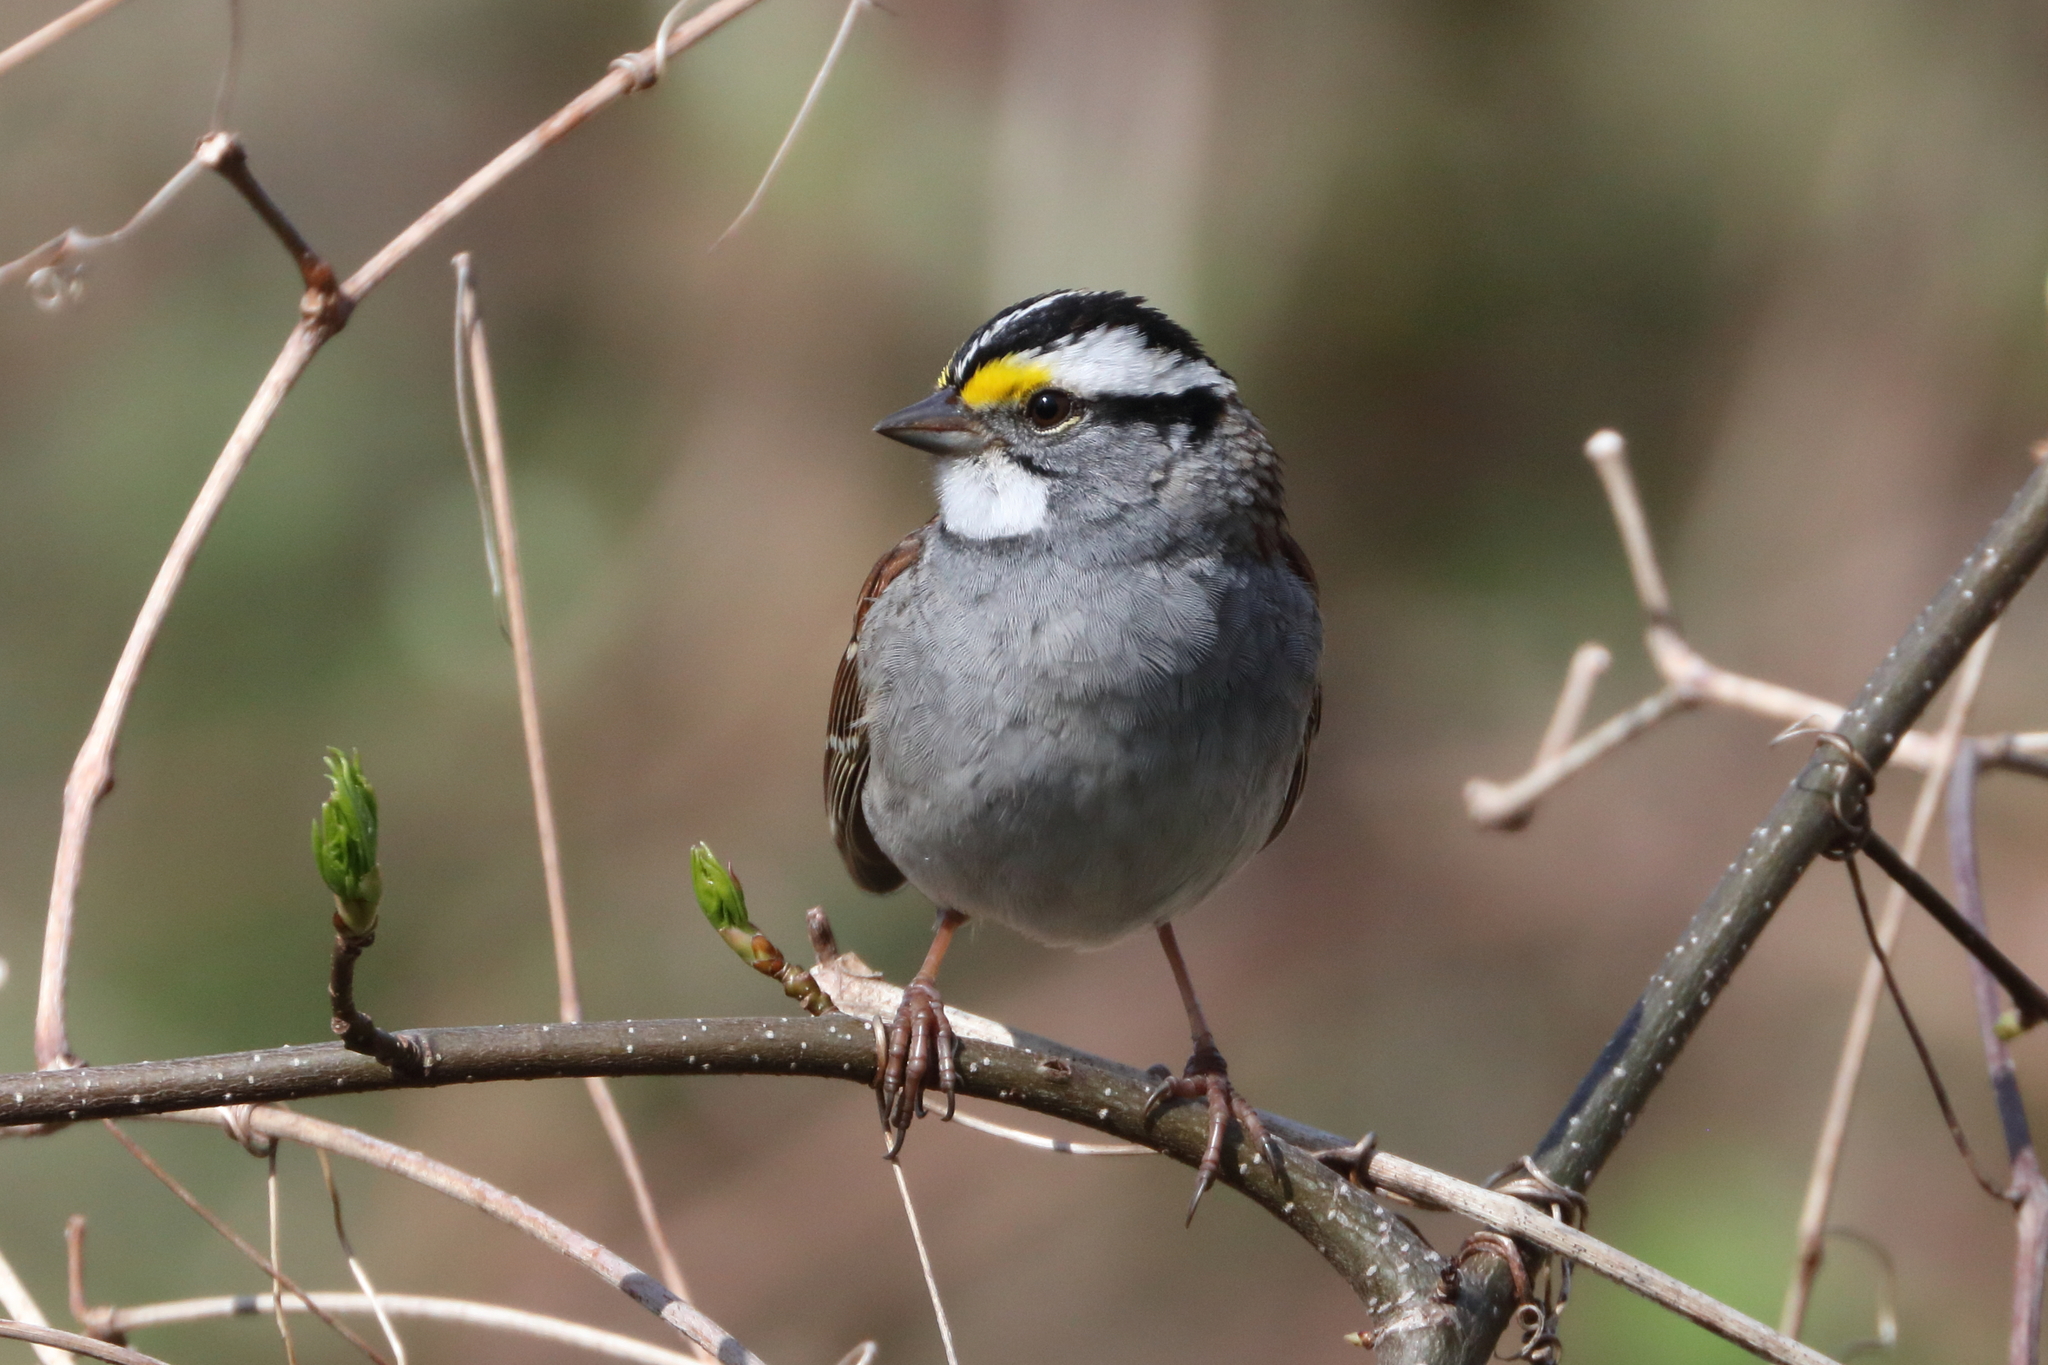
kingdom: Animalia
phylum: Chordata
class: Aves
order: Passeriformes
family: Passerellidae
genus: Zonotrichia
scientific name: Zonotrichia albicollis
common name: White-throated sparrow
